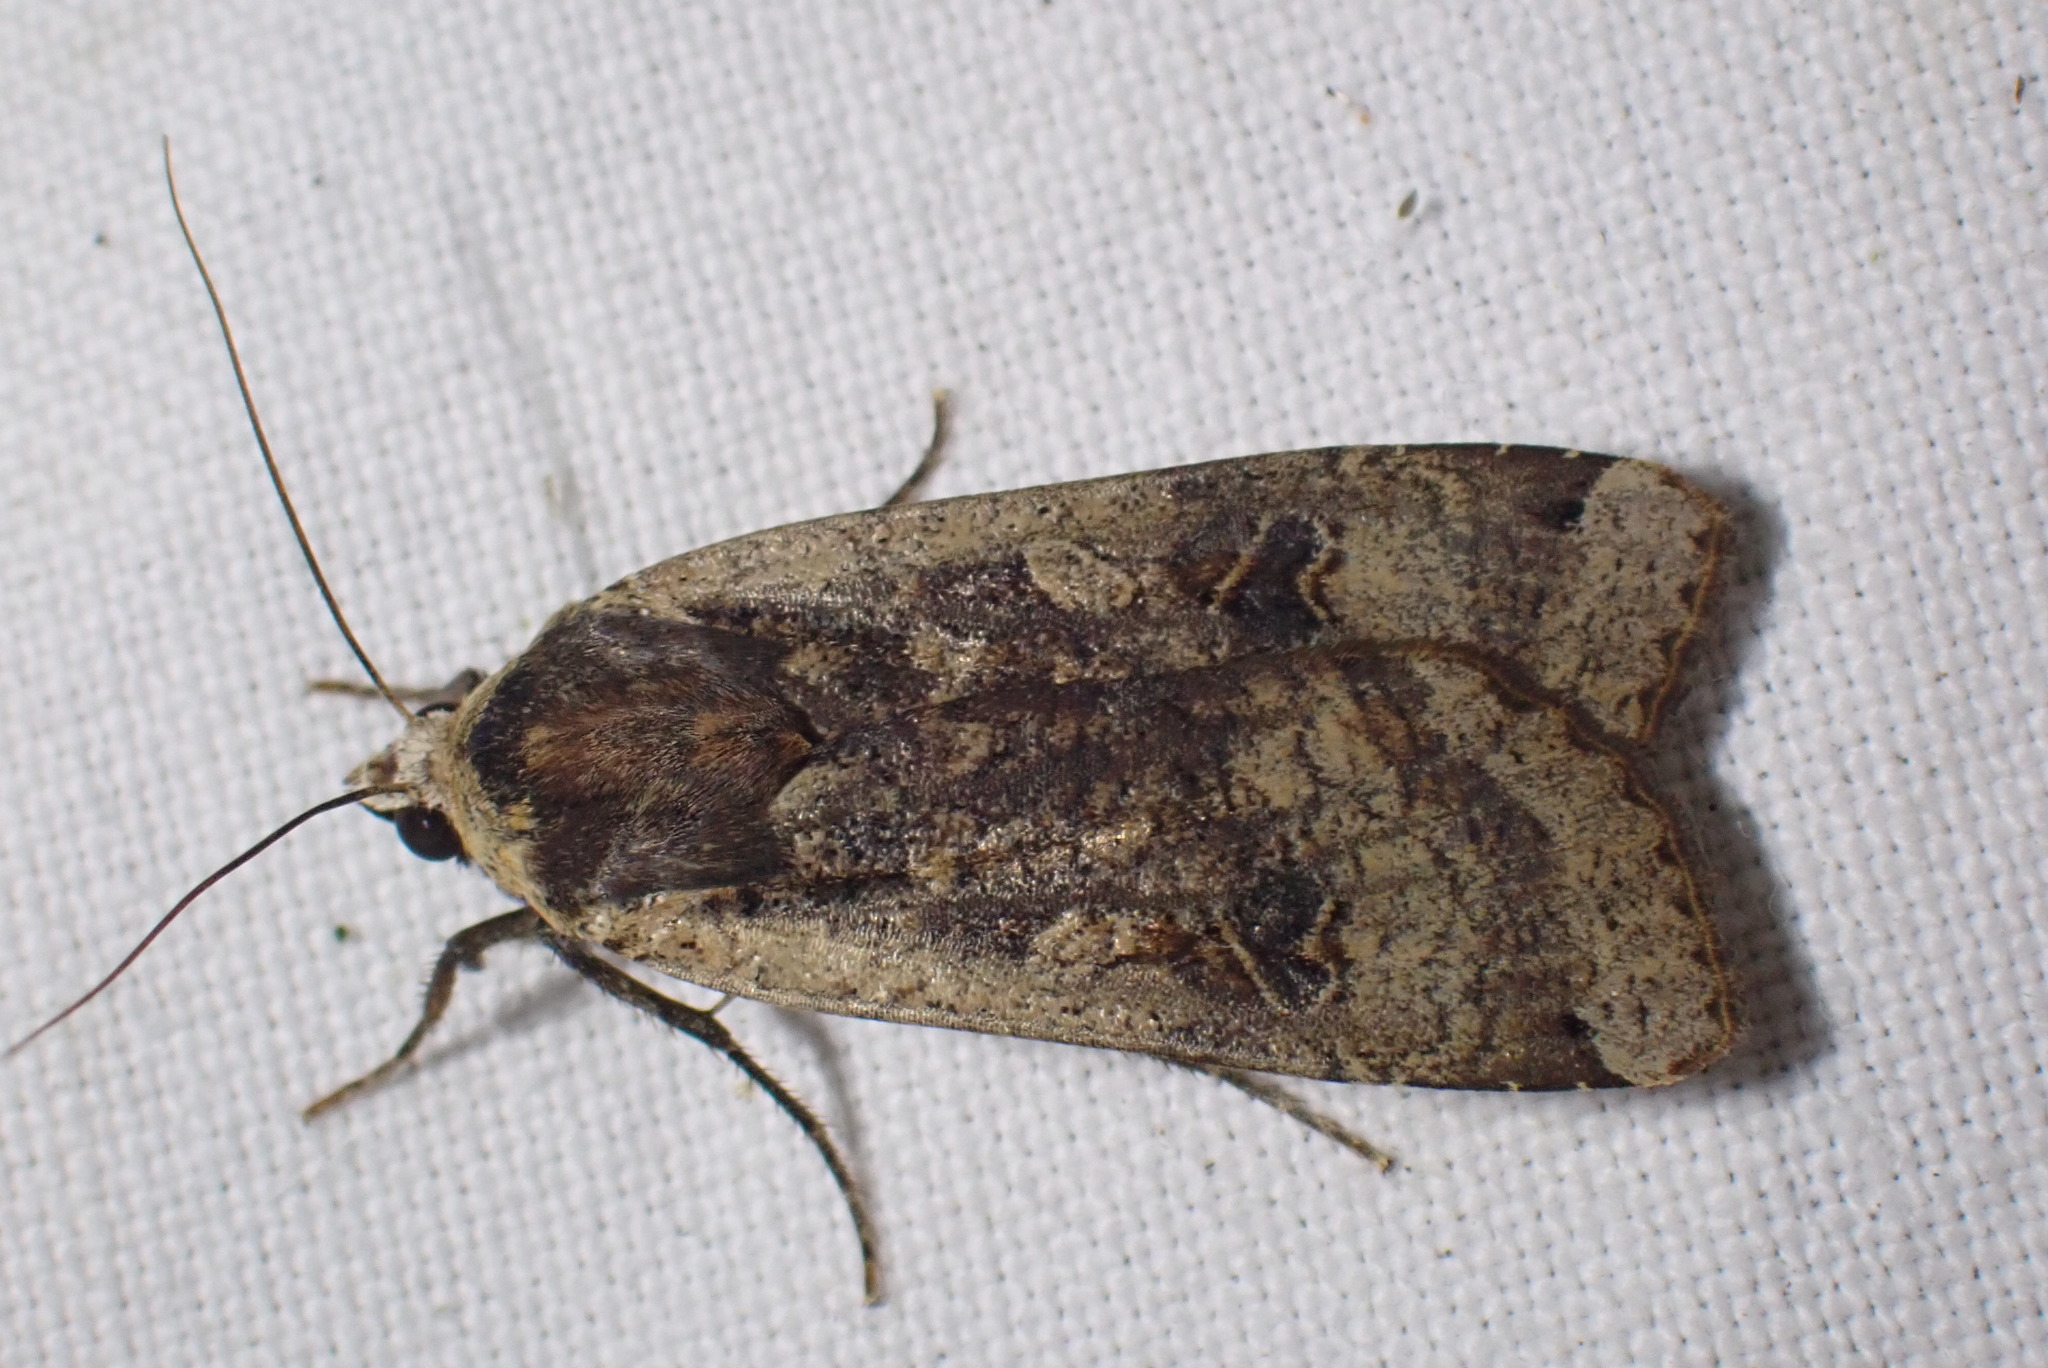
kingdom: Animalia
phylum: Arthropoda
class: Insecta
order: Lepidoptera
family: Noctuidae
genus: Noctua
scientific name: Noctua pronuba
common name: Large yellow underwing
